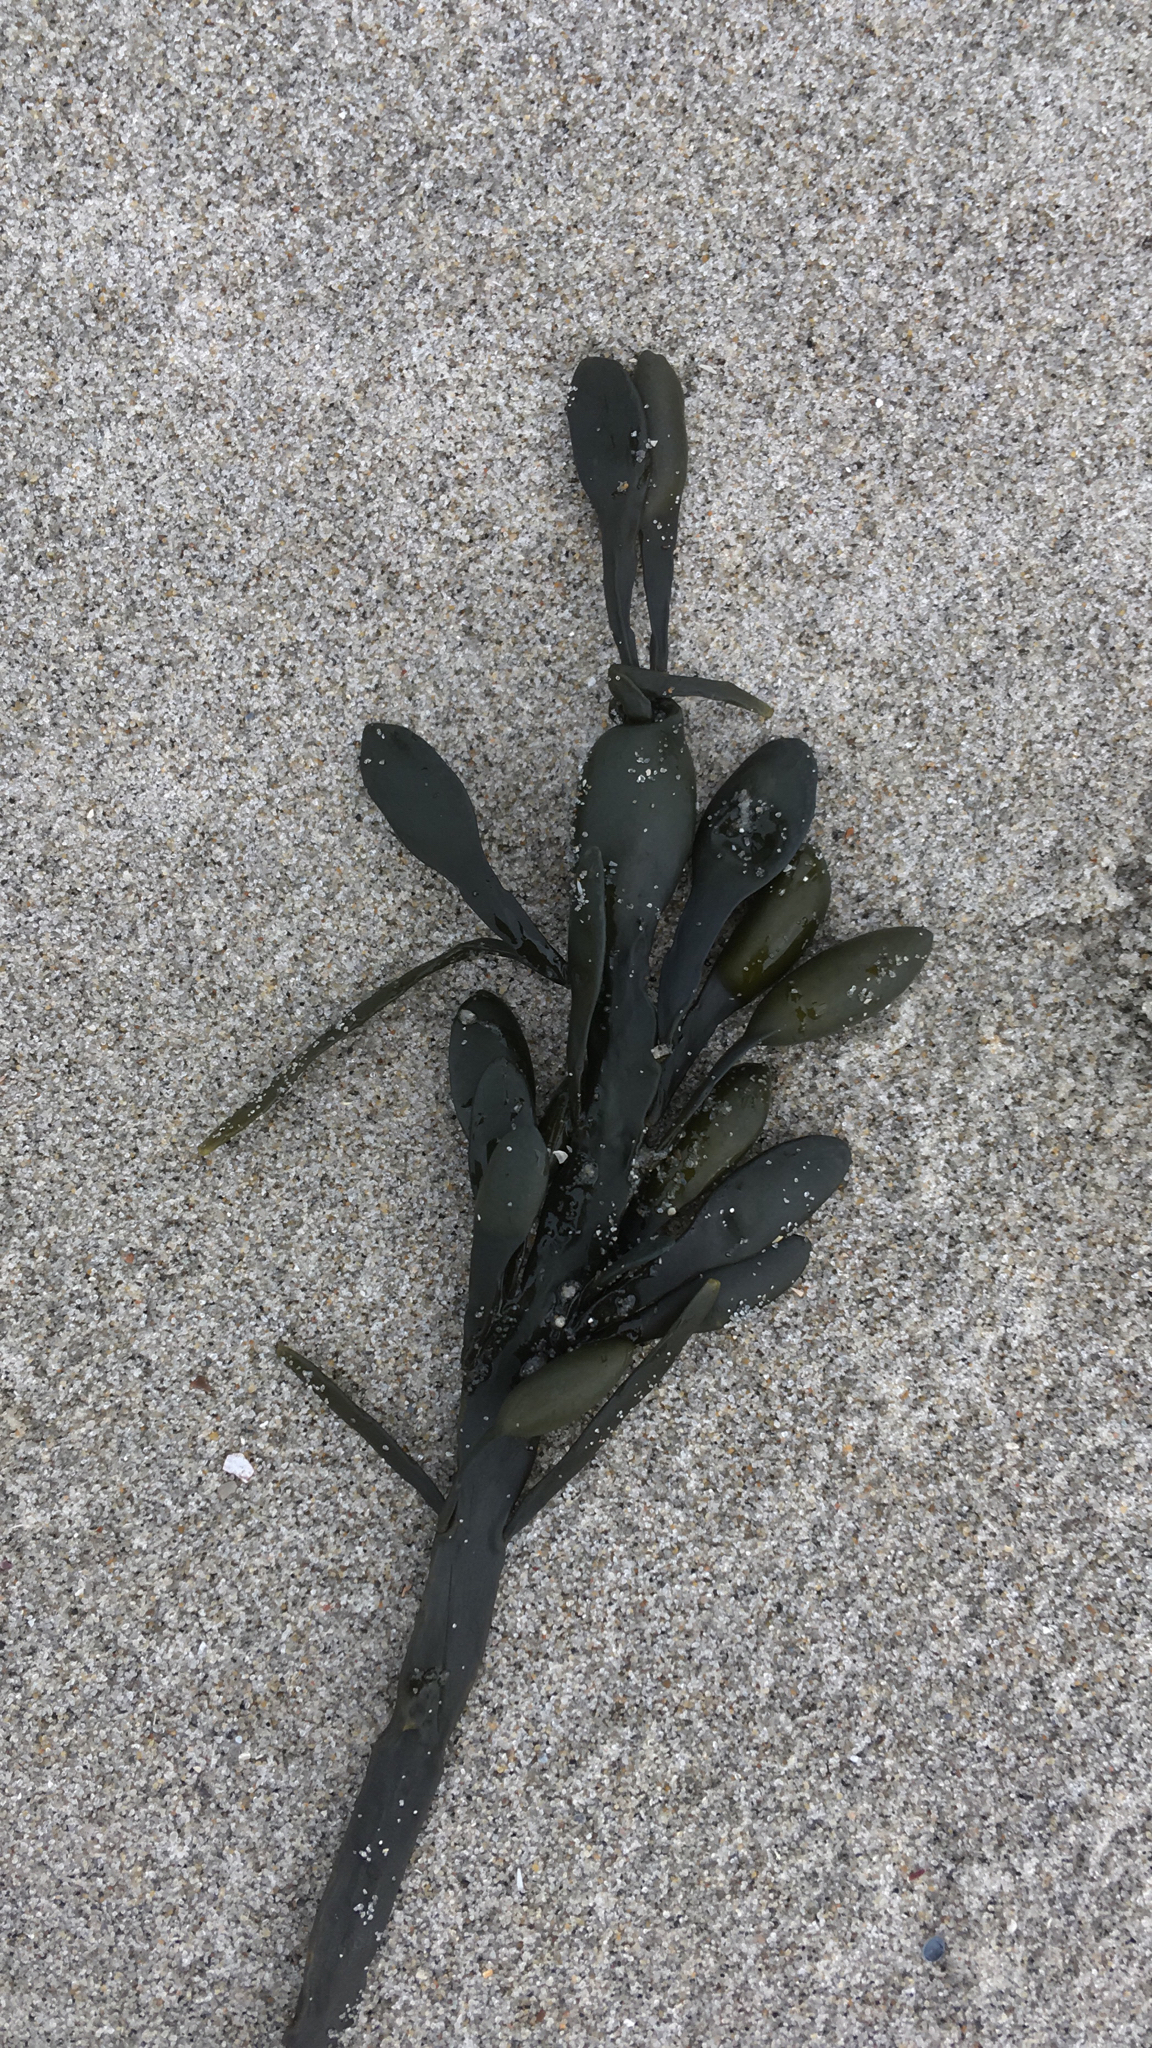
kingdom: Chromista
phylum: Ochrophyta
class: Phaeophyceae
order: Fucales
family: Fucaceae
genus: Ascophyllum
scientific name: Ascophyllum nodosum
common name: Knotted wrack
